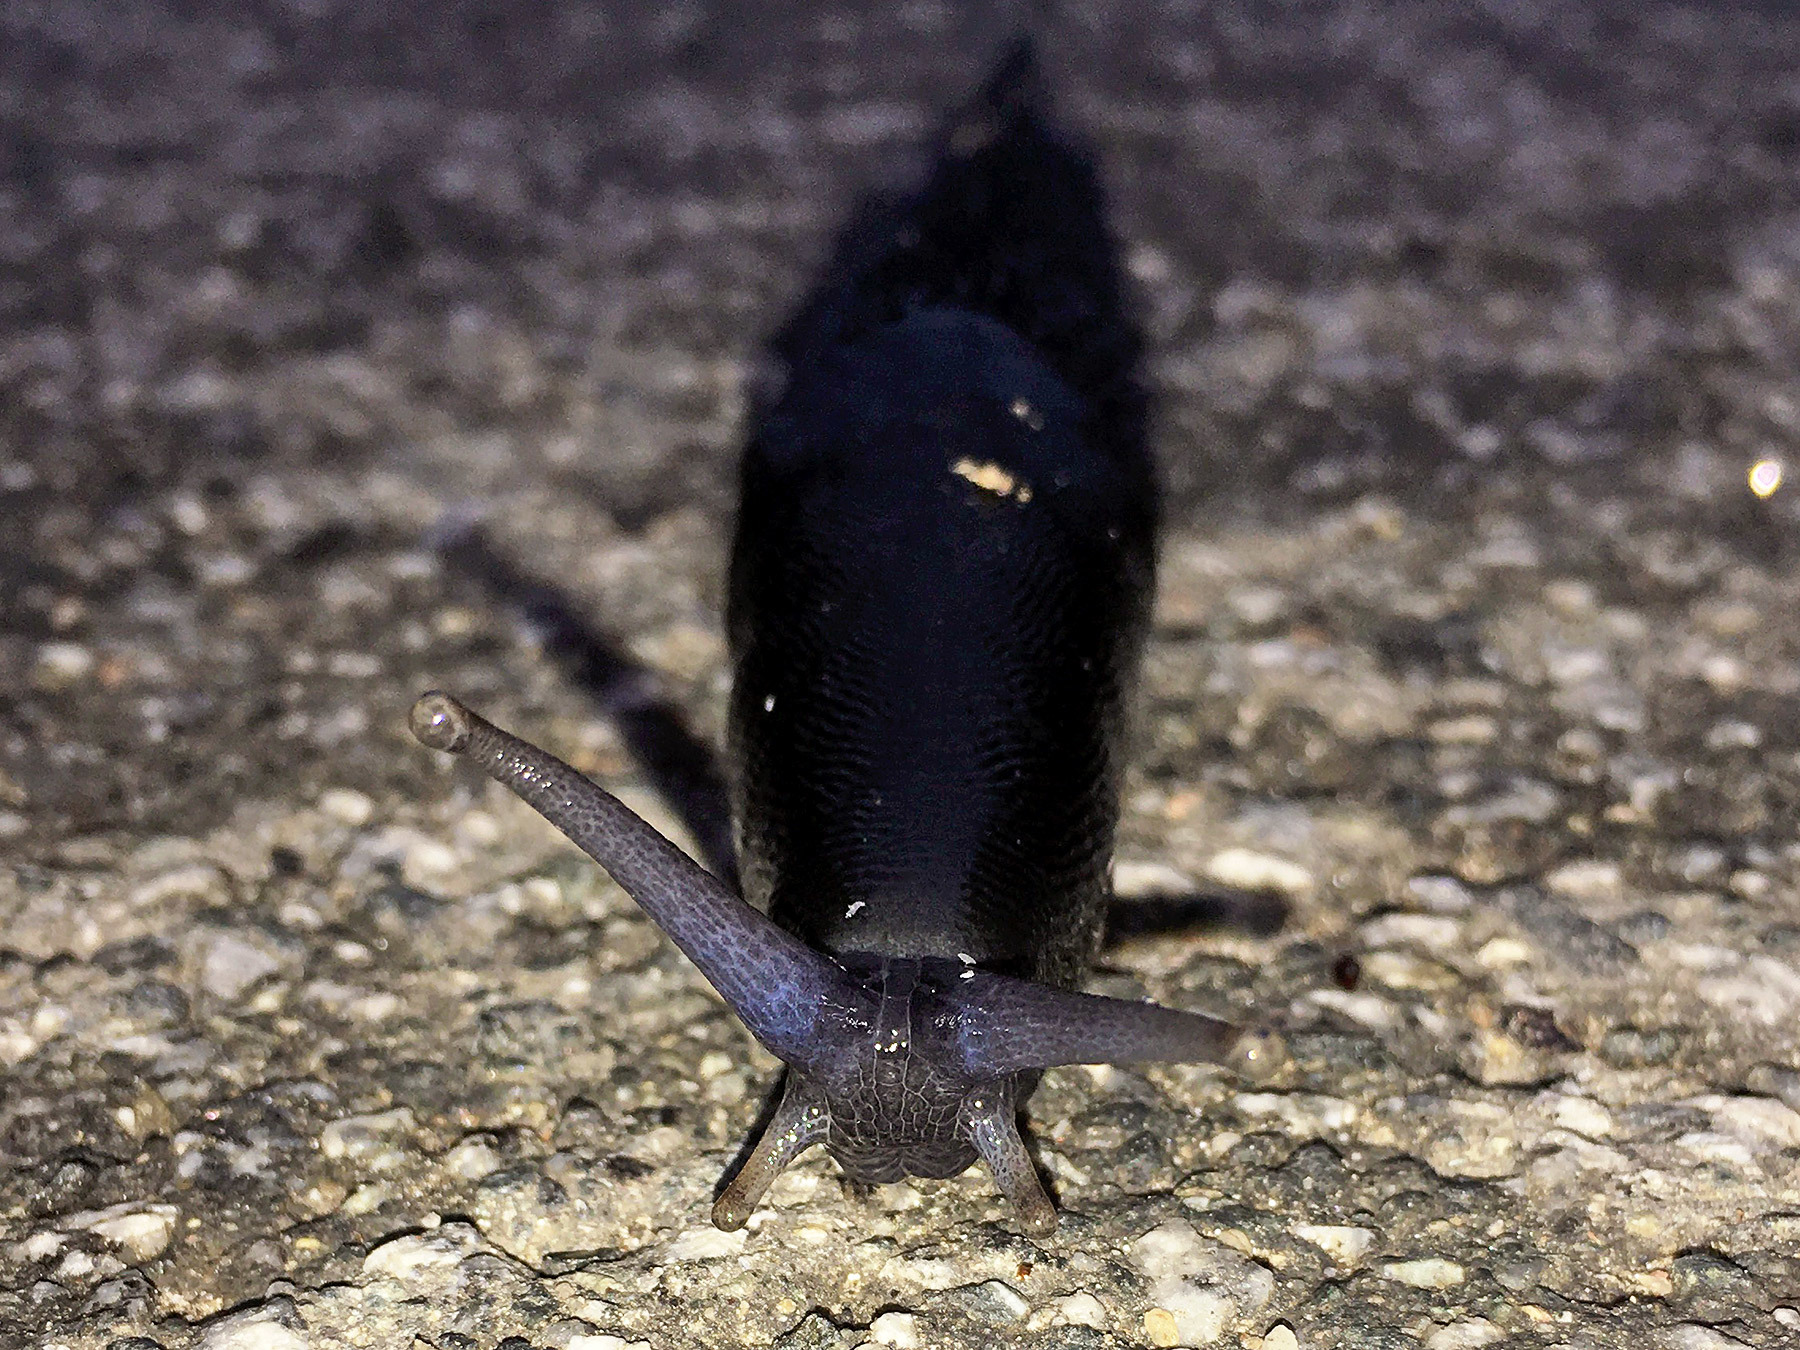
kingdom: Animalia
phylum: Mollusca
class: Gastropoda
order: Stylommatophora
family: Limacidae
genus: Limax
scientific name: Limax cinereoniger
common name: Ash-black slug
